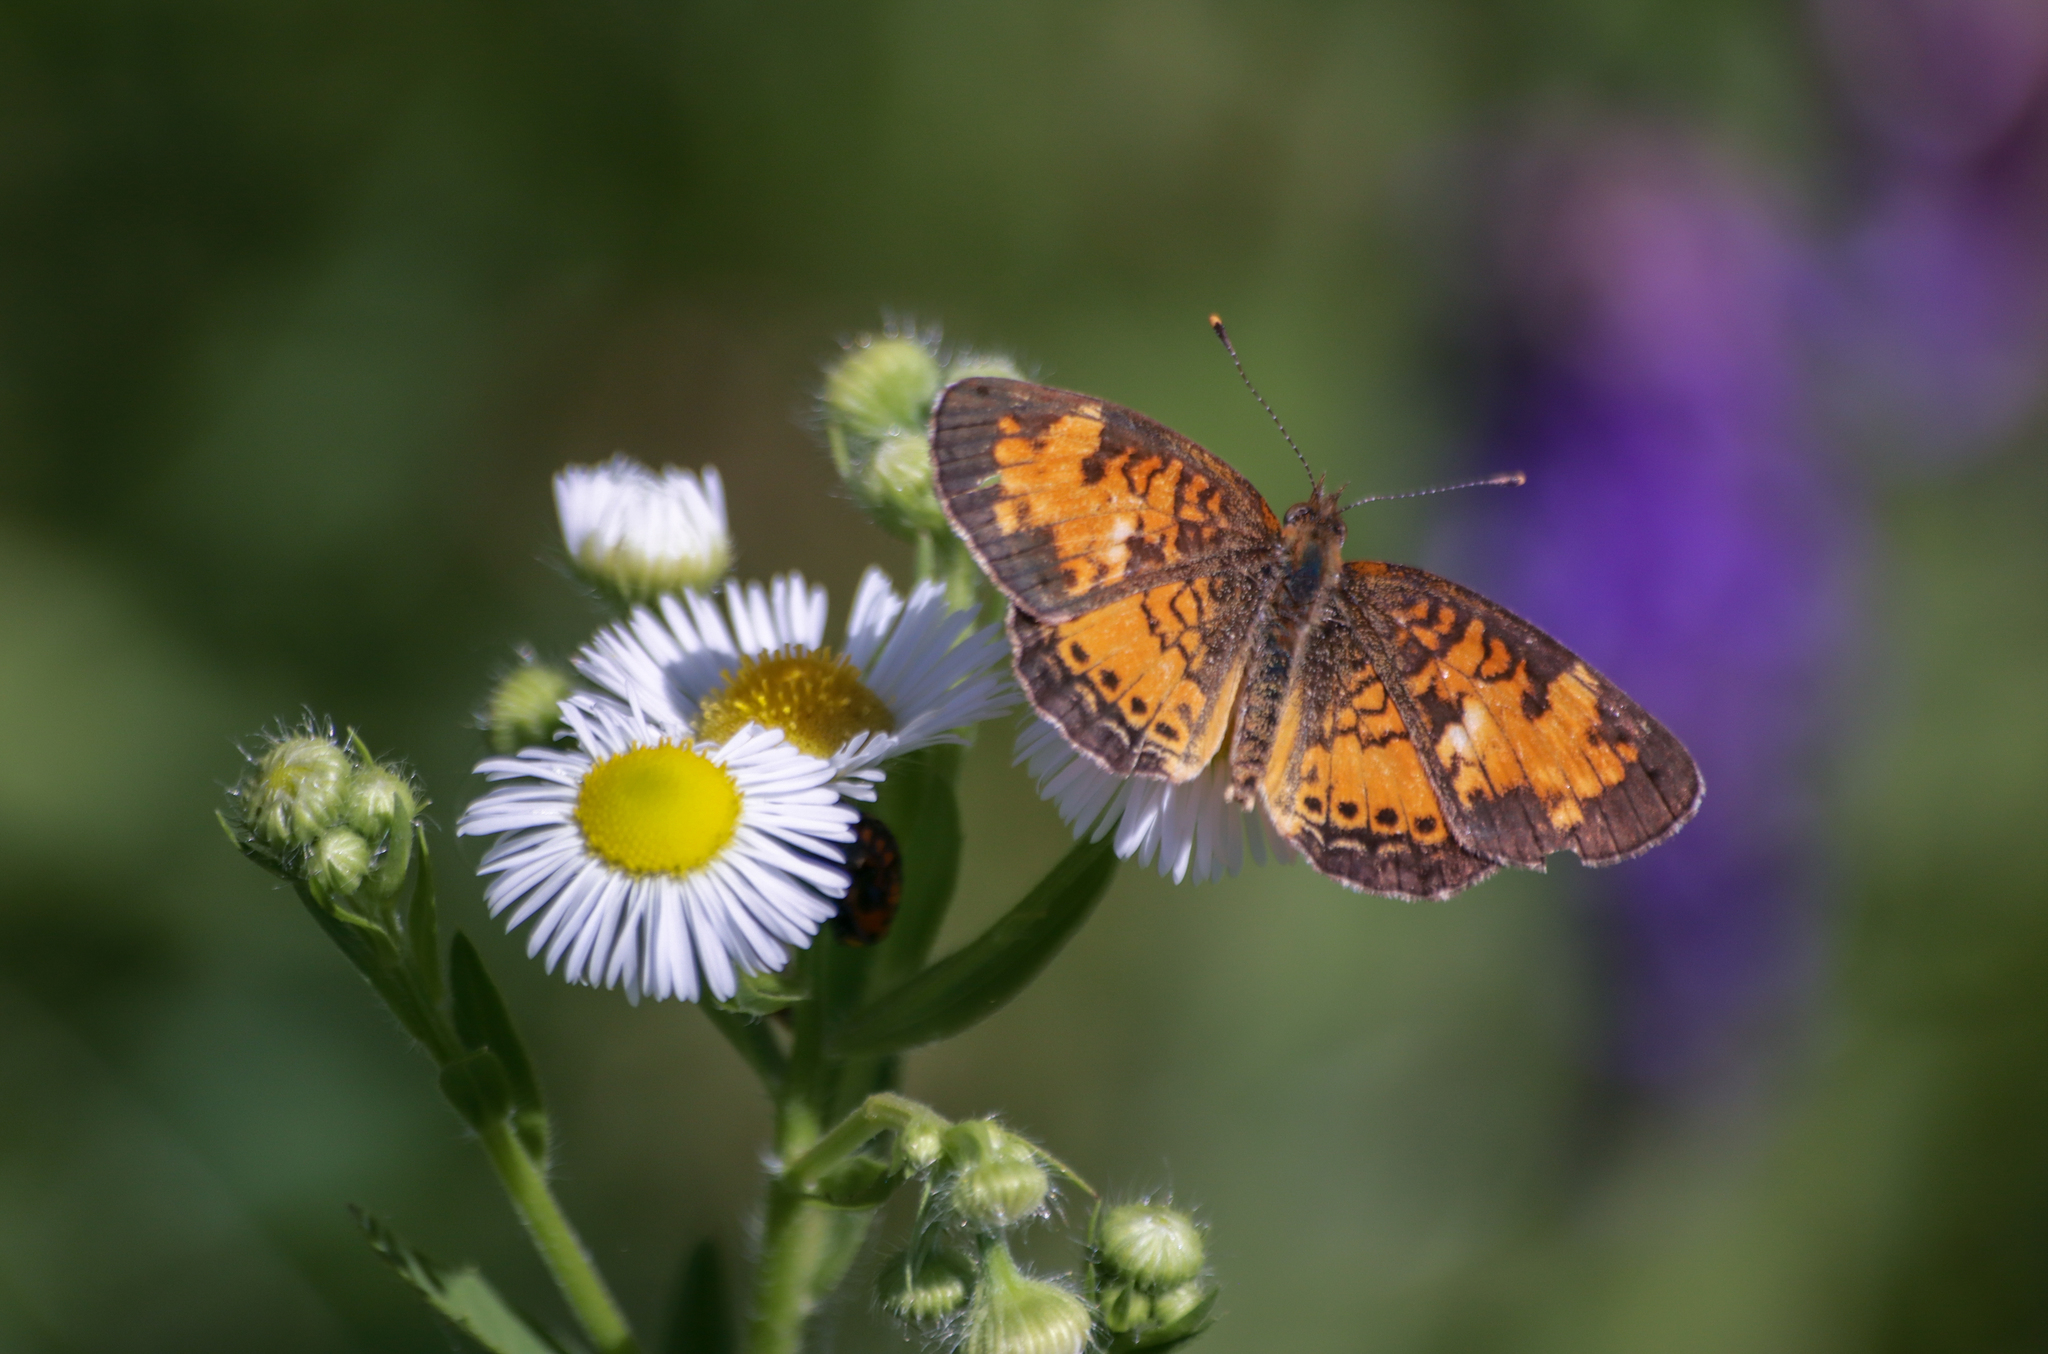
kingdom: Animalia
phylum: Arthropoda
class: Insecta
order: Lepidoptera
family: Nymphalidae
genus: Phyciodes
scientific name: Phyciodes tharos
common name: Pearl crescent
